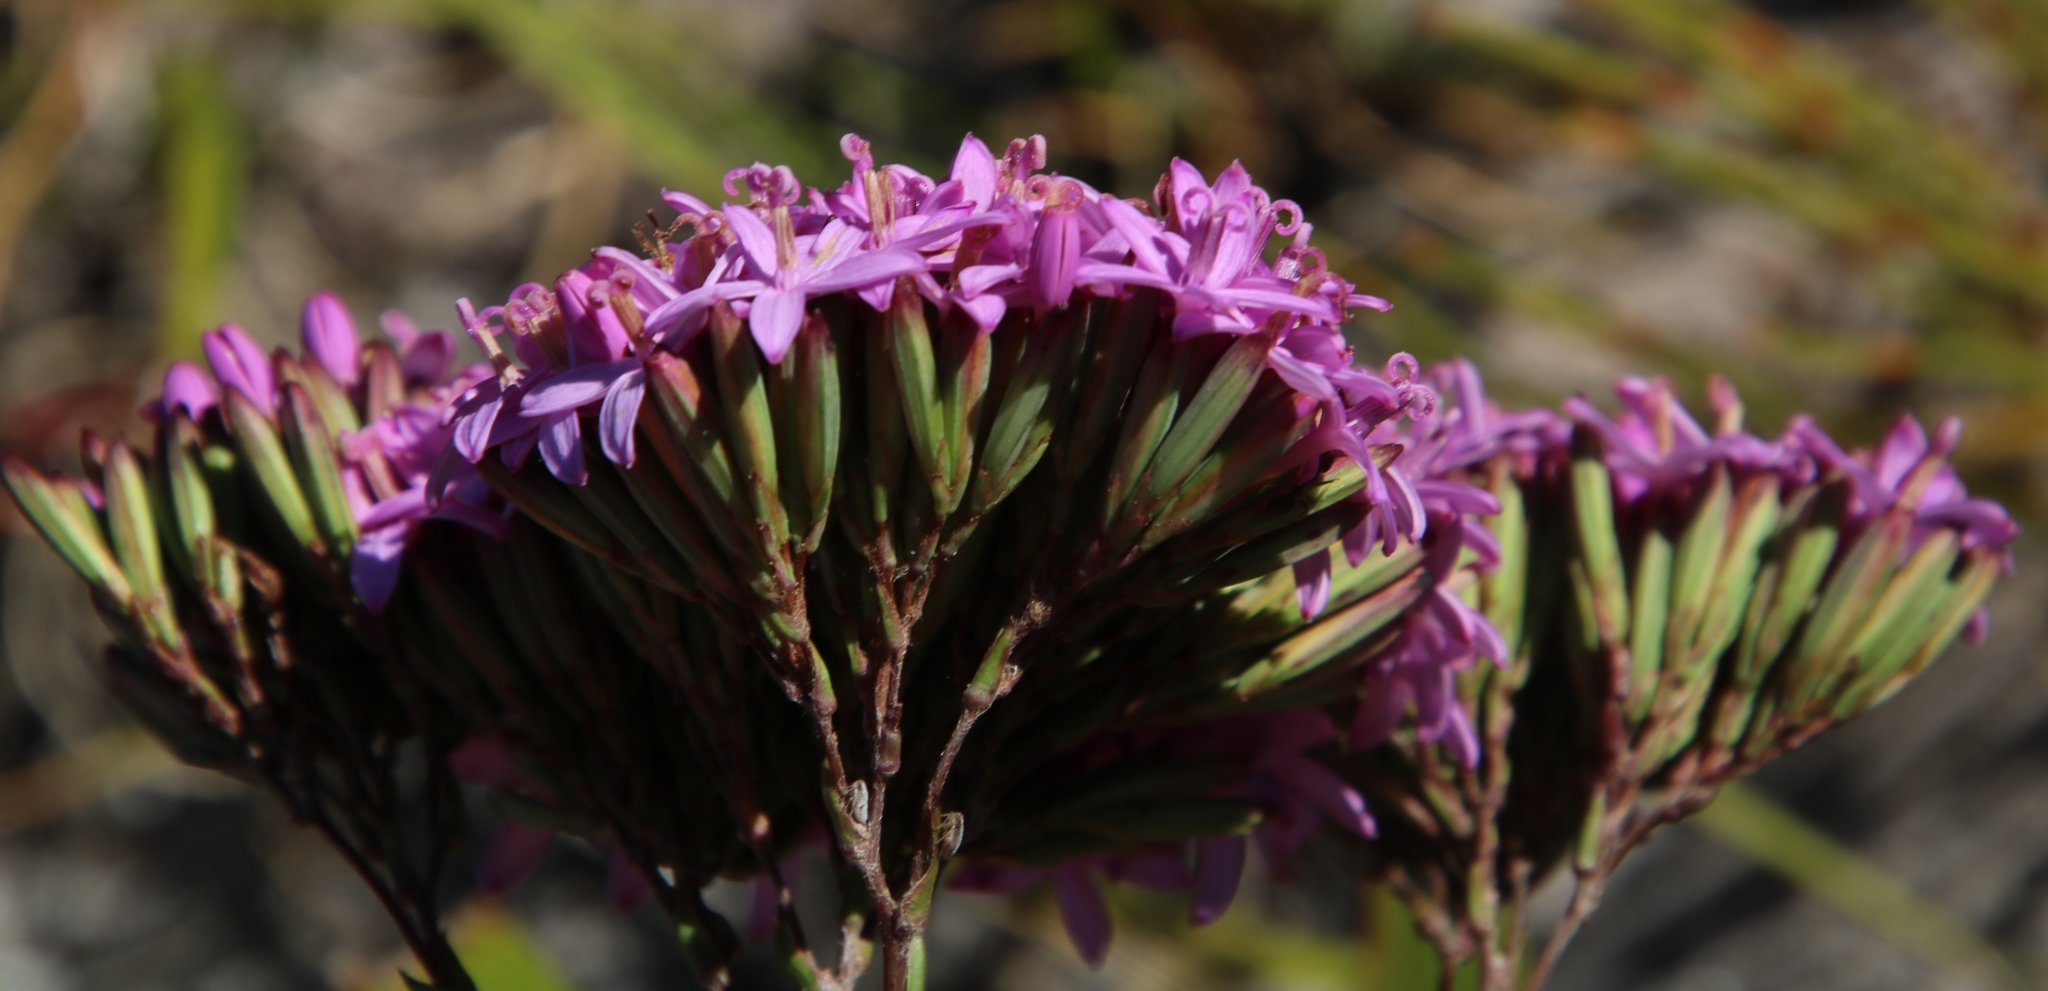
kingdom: Plantae
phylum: Tracheophyta
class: Magnoliopsida
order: Asterales
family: Asteraceae
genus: Corymbium
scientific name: Corymbium glabrum
